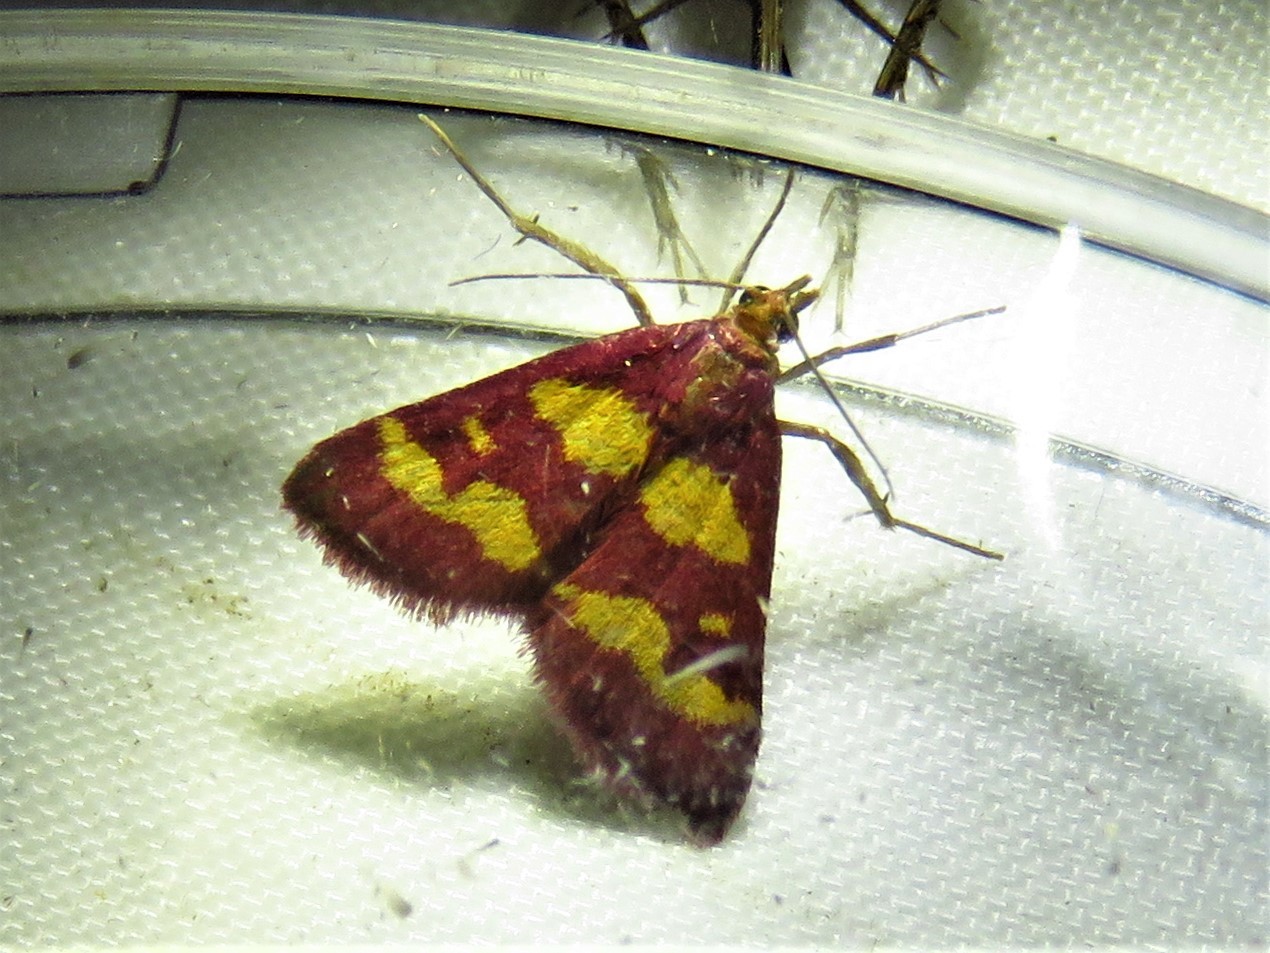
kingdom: Animalia
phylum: Arthropoda
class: Insecta
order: Lepidoptera
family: Crambidae
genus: Pyrausta
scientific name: Pyrausta tyralis
